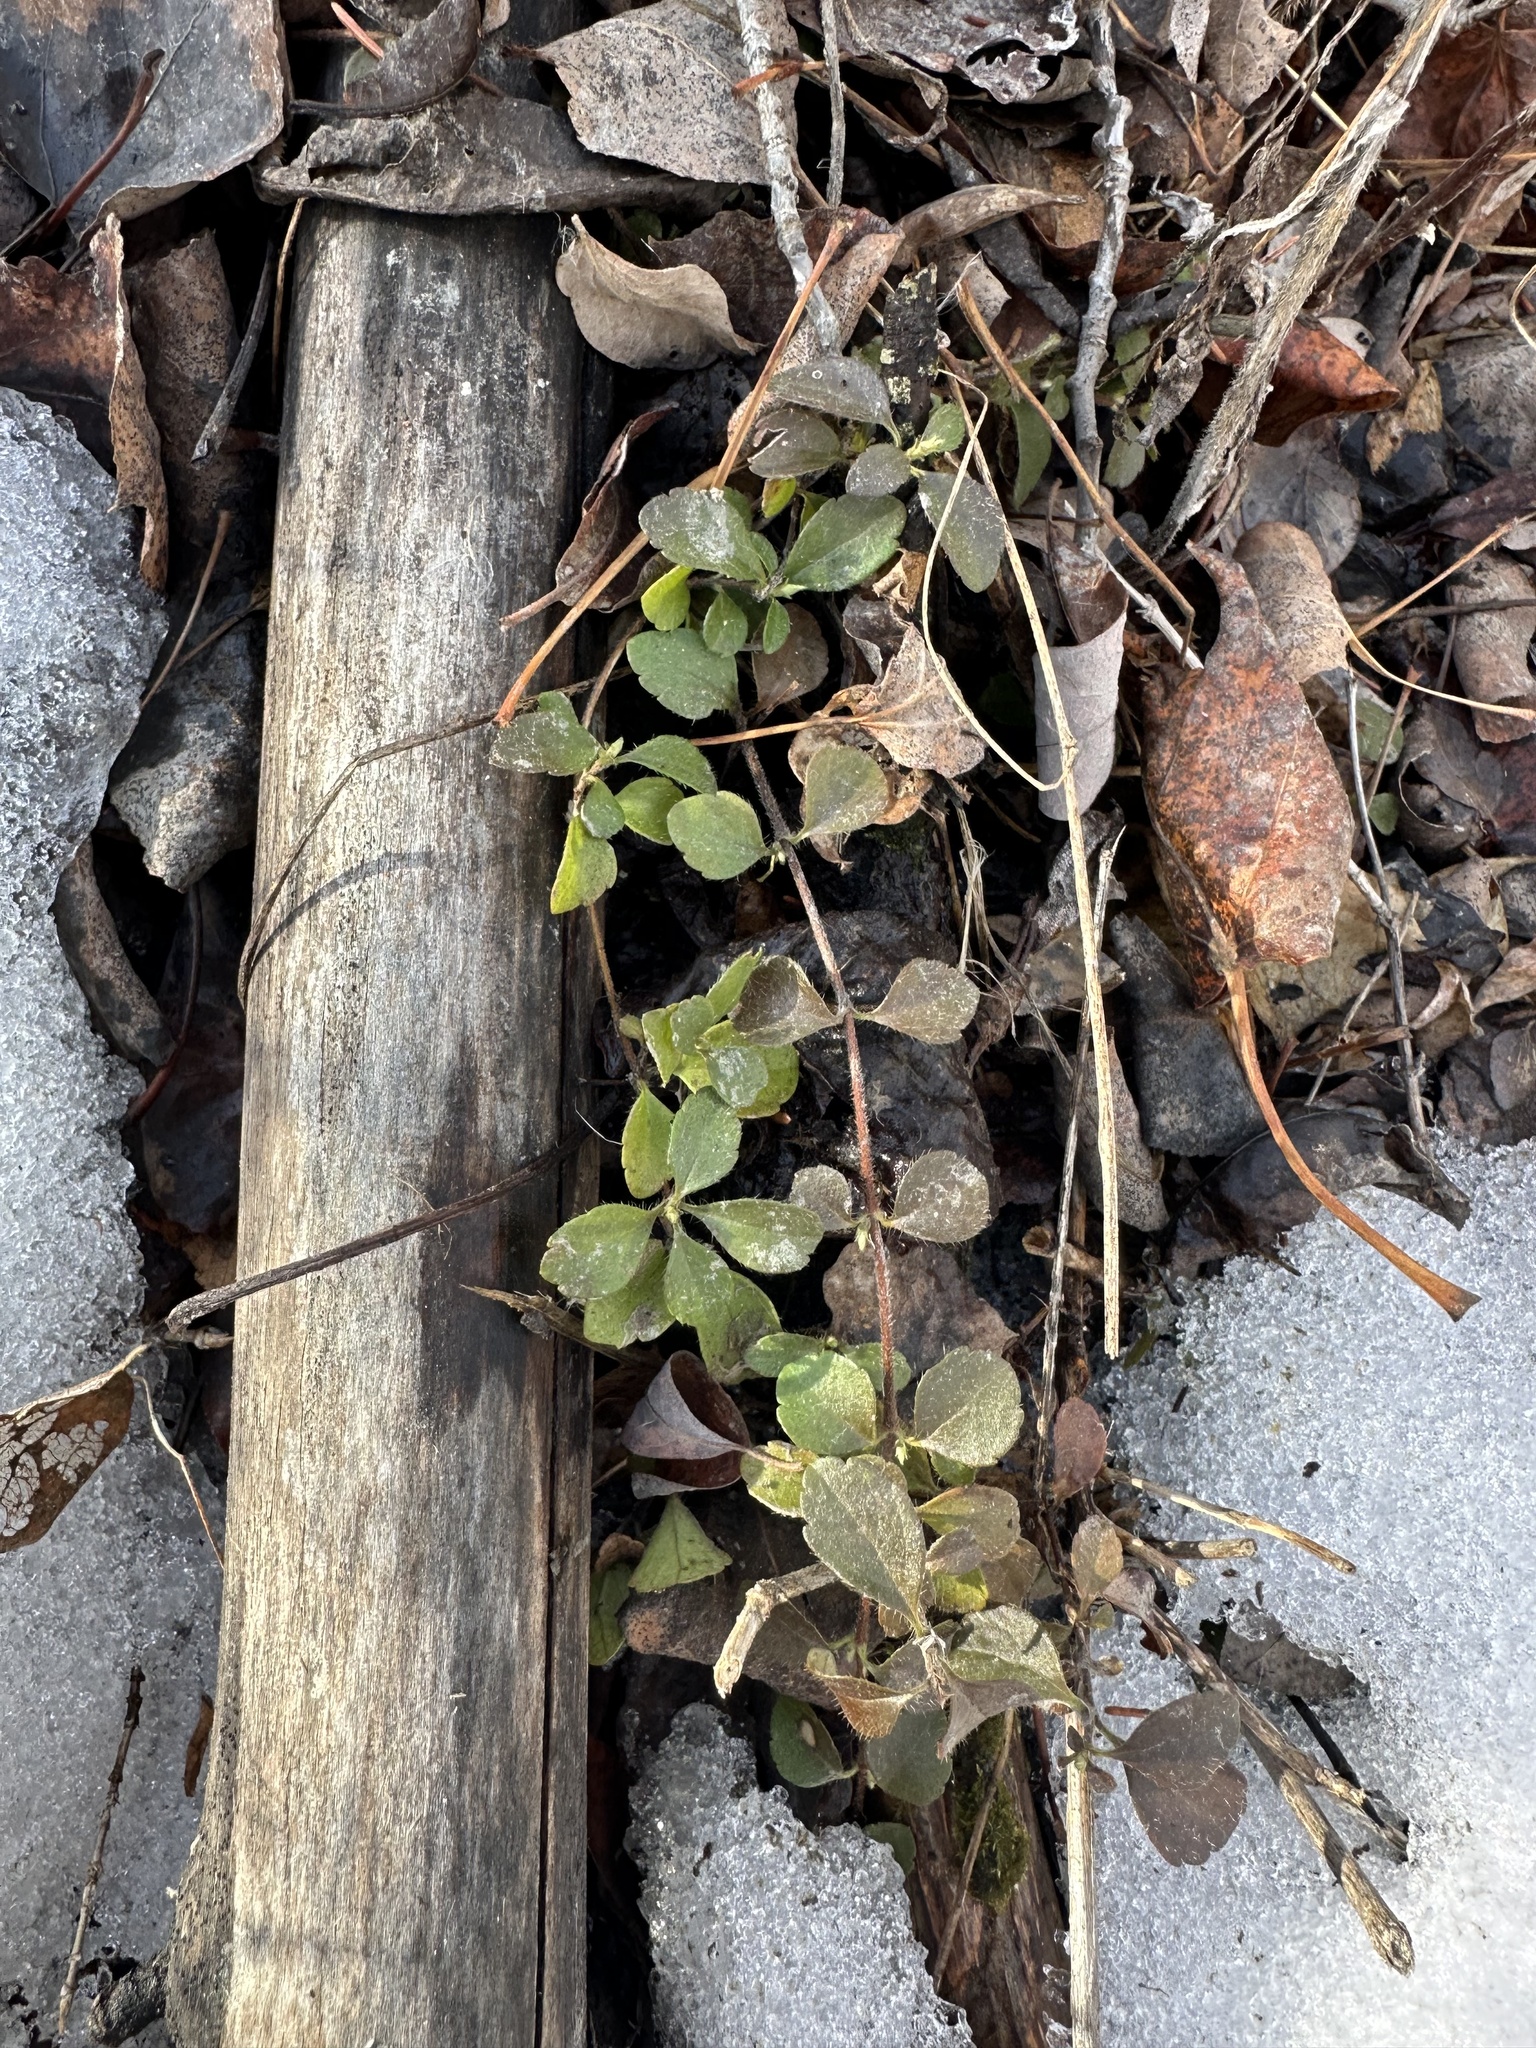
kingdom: Plantae
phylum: Tracheophyta
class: Magnoliopsida
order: Dipsacales
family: Caprifoliaceae
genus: Linnaea
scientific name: Linnaea borealis
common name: Twinflower
